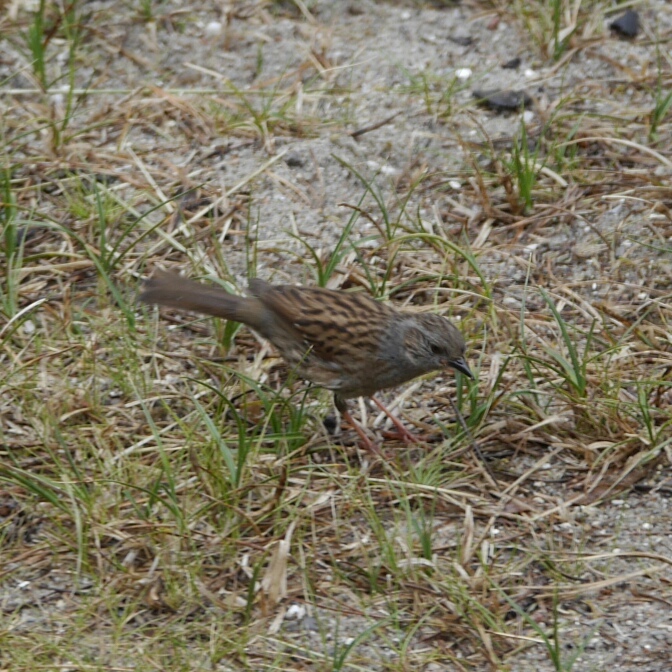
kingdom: Animalia
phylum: Chordata
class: Aves
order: Passeriformes
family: Prunellidae
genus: Prunella
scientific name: Prunella modularis
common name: Dunnock
